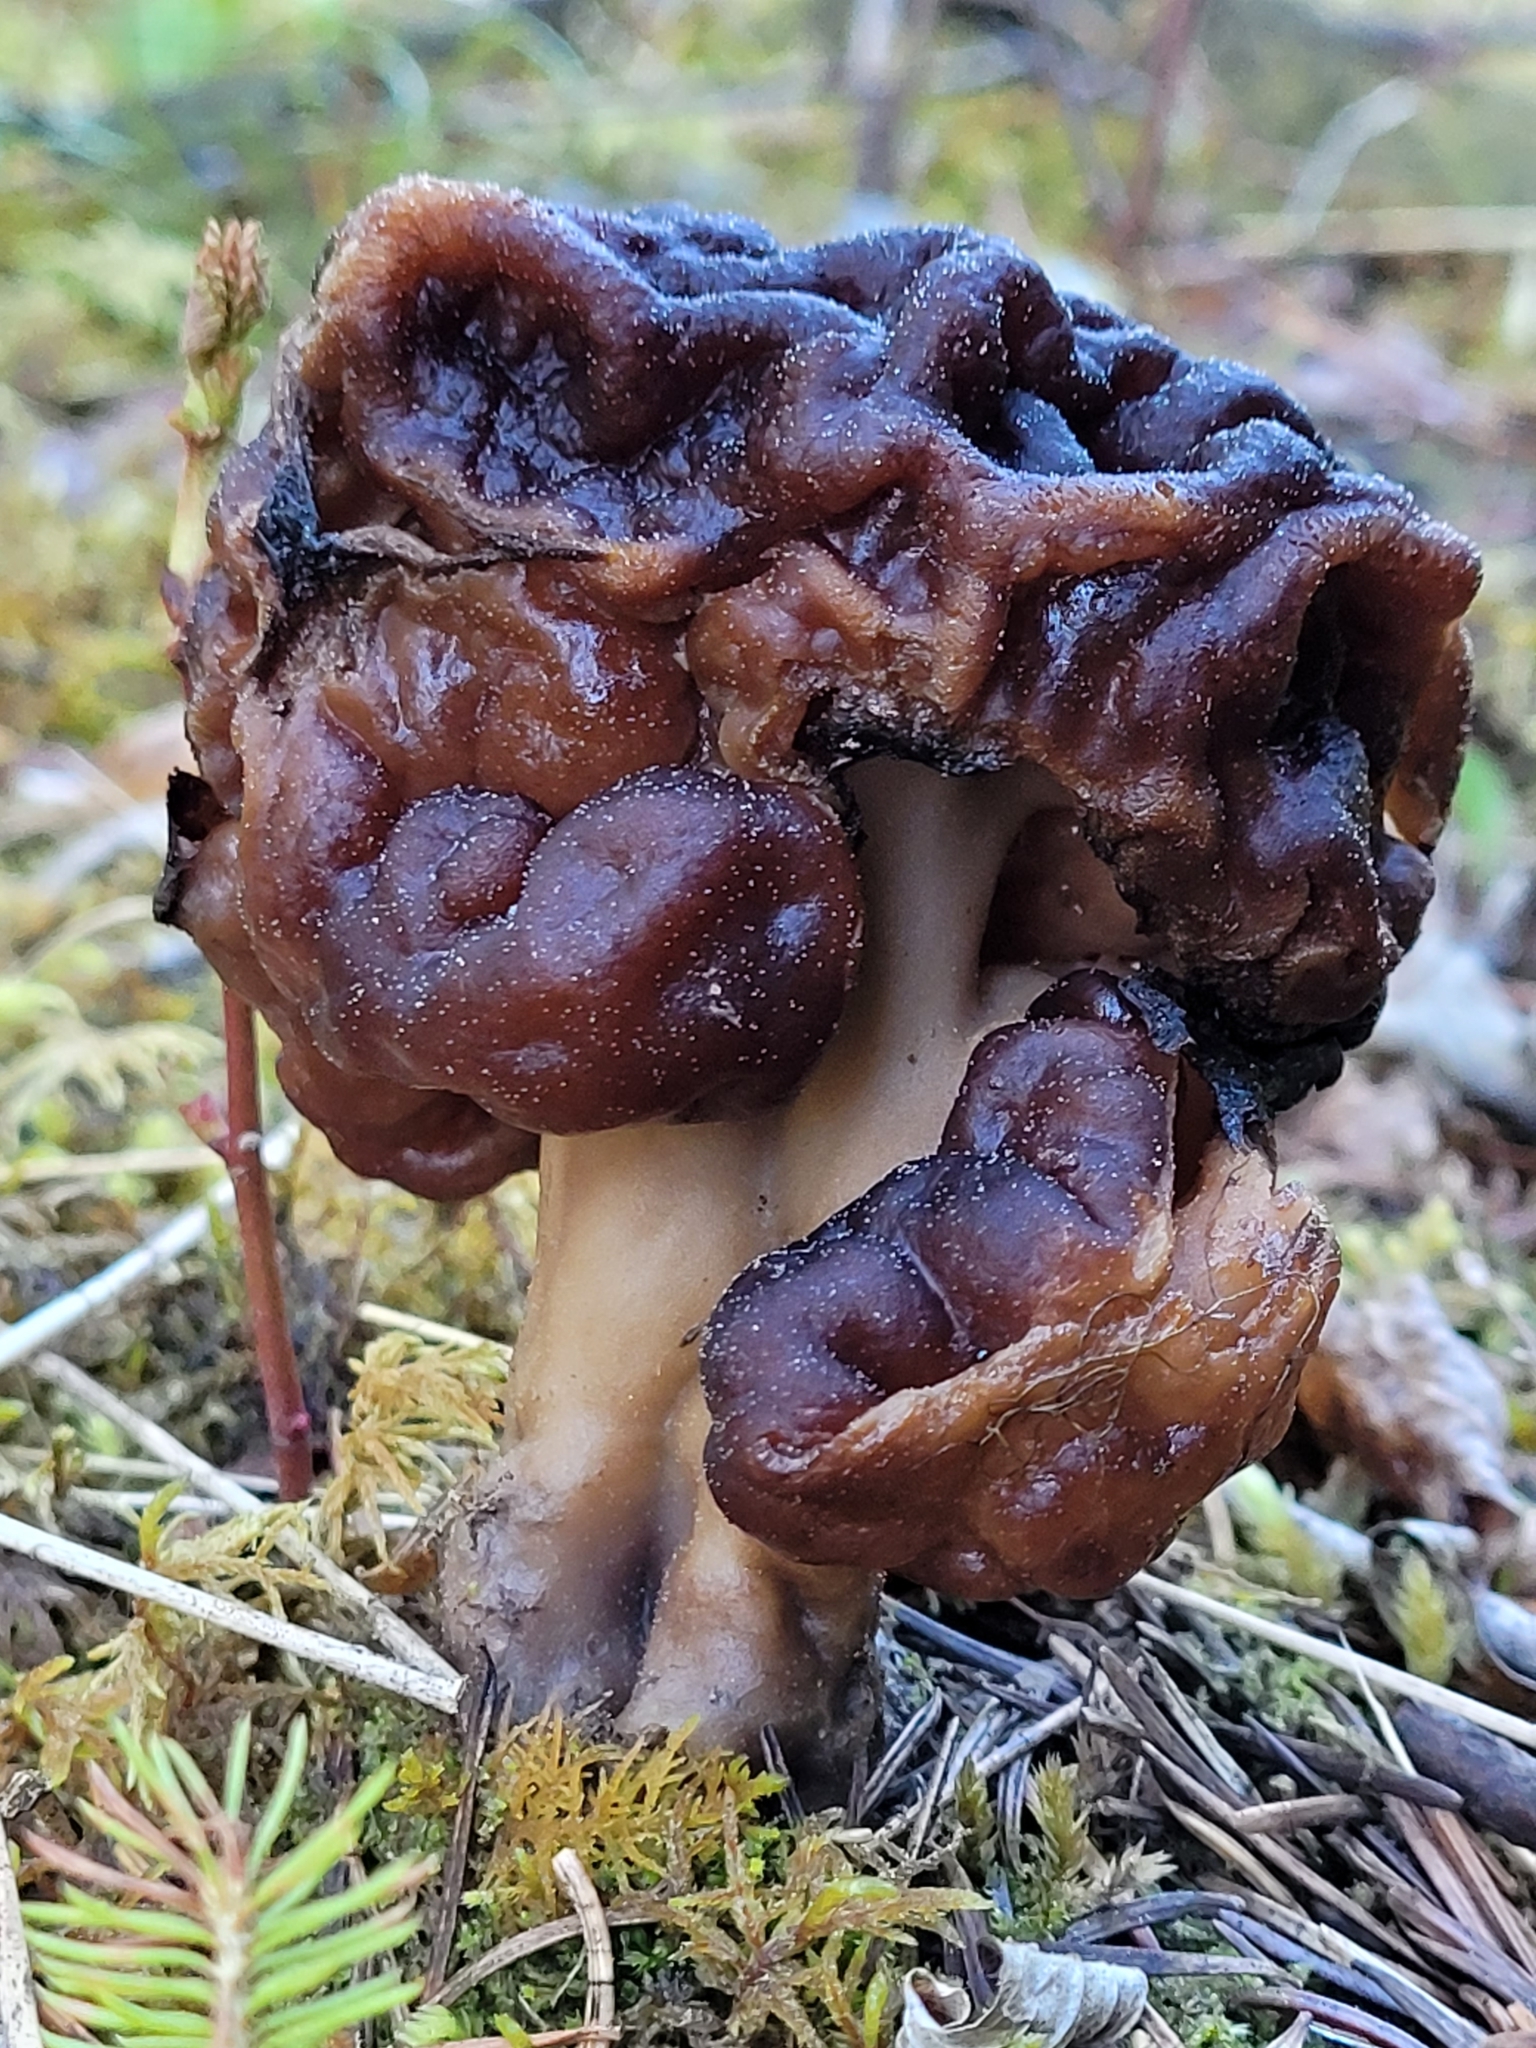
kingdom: Fungi
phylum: Ascomycota
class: Pezizomycetes
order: Pezizales
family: Discinaceae
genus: Gyromitra
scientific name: Gyromitra esculenta
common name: False morel
